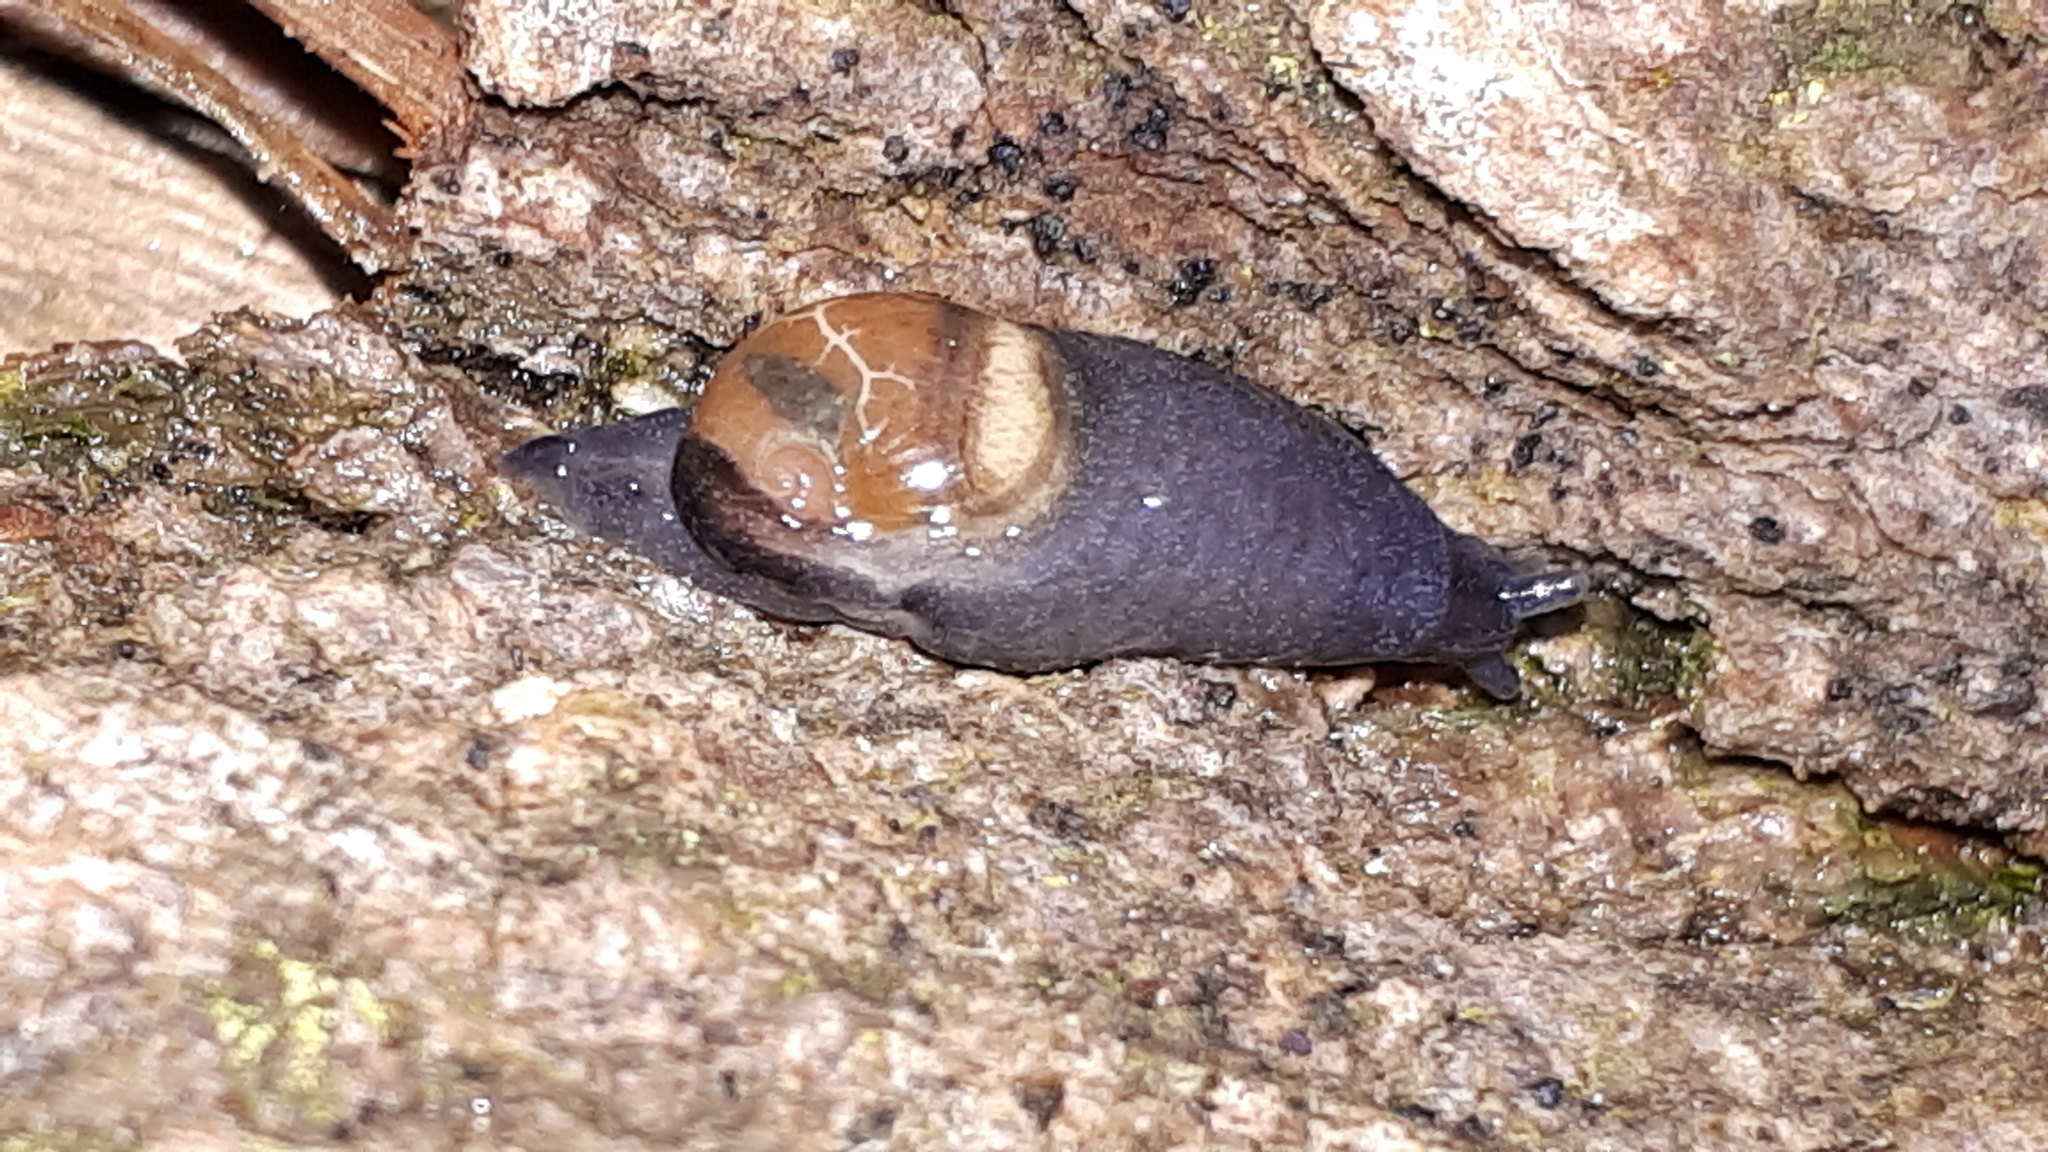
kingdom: Animalia
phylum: Mollusca
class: Gastropoda
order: Stylommatophora
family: Vitrinidae
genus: Eucobresia
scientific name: Eucobresia diaphana
